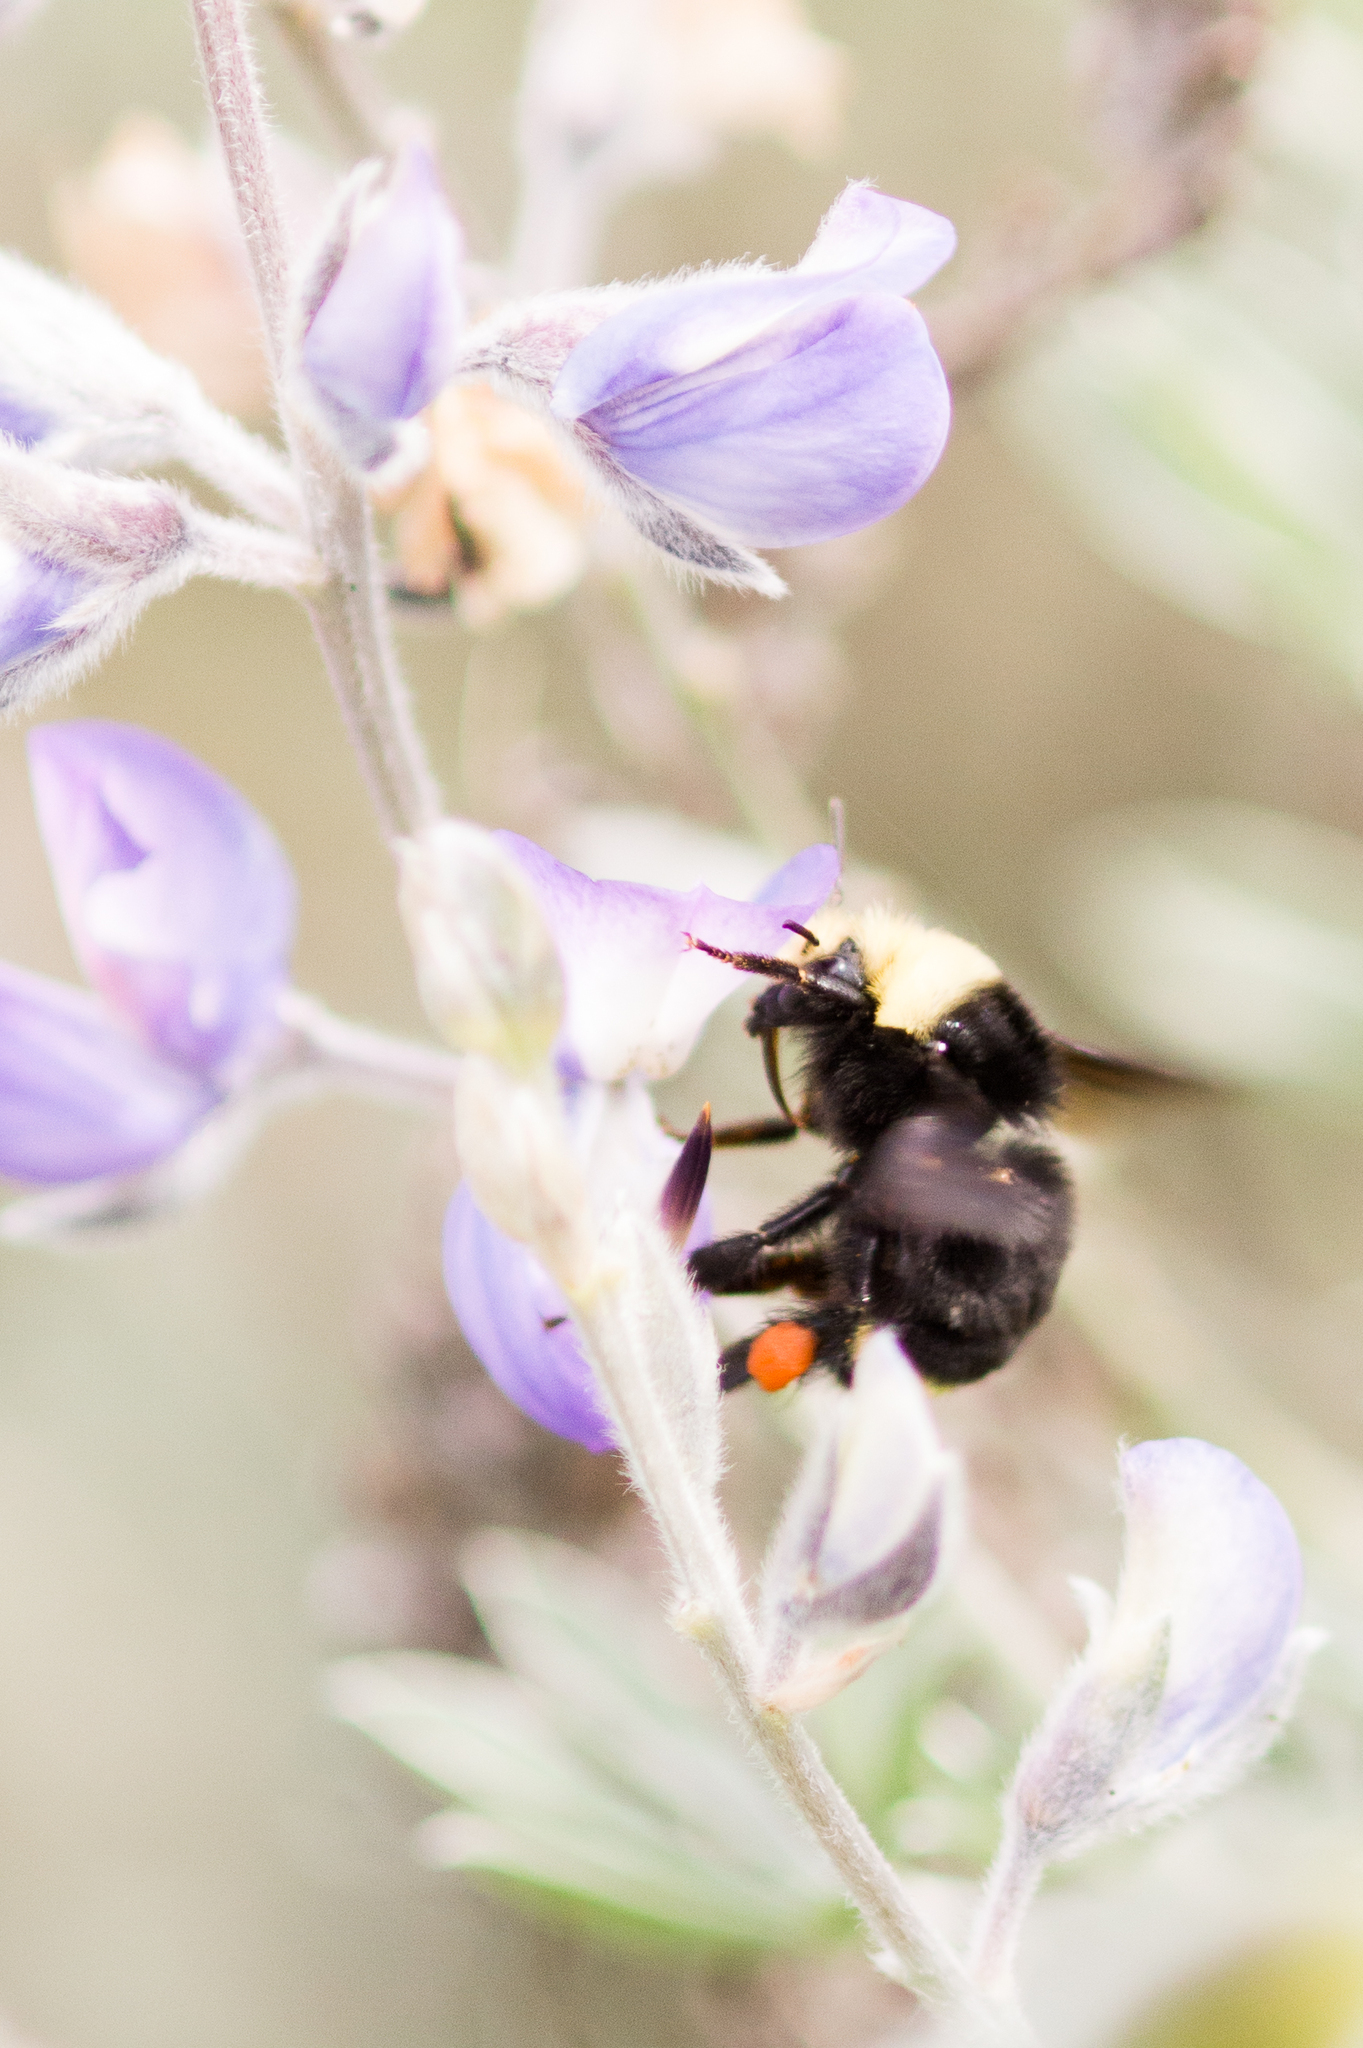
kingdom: Animalia
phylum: Arthropoda
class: Insecta
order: Hymenoptera
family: Apidae
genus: Bombus
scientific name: Bombus vosnesenskii
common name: Vosnesensky bumble bee
